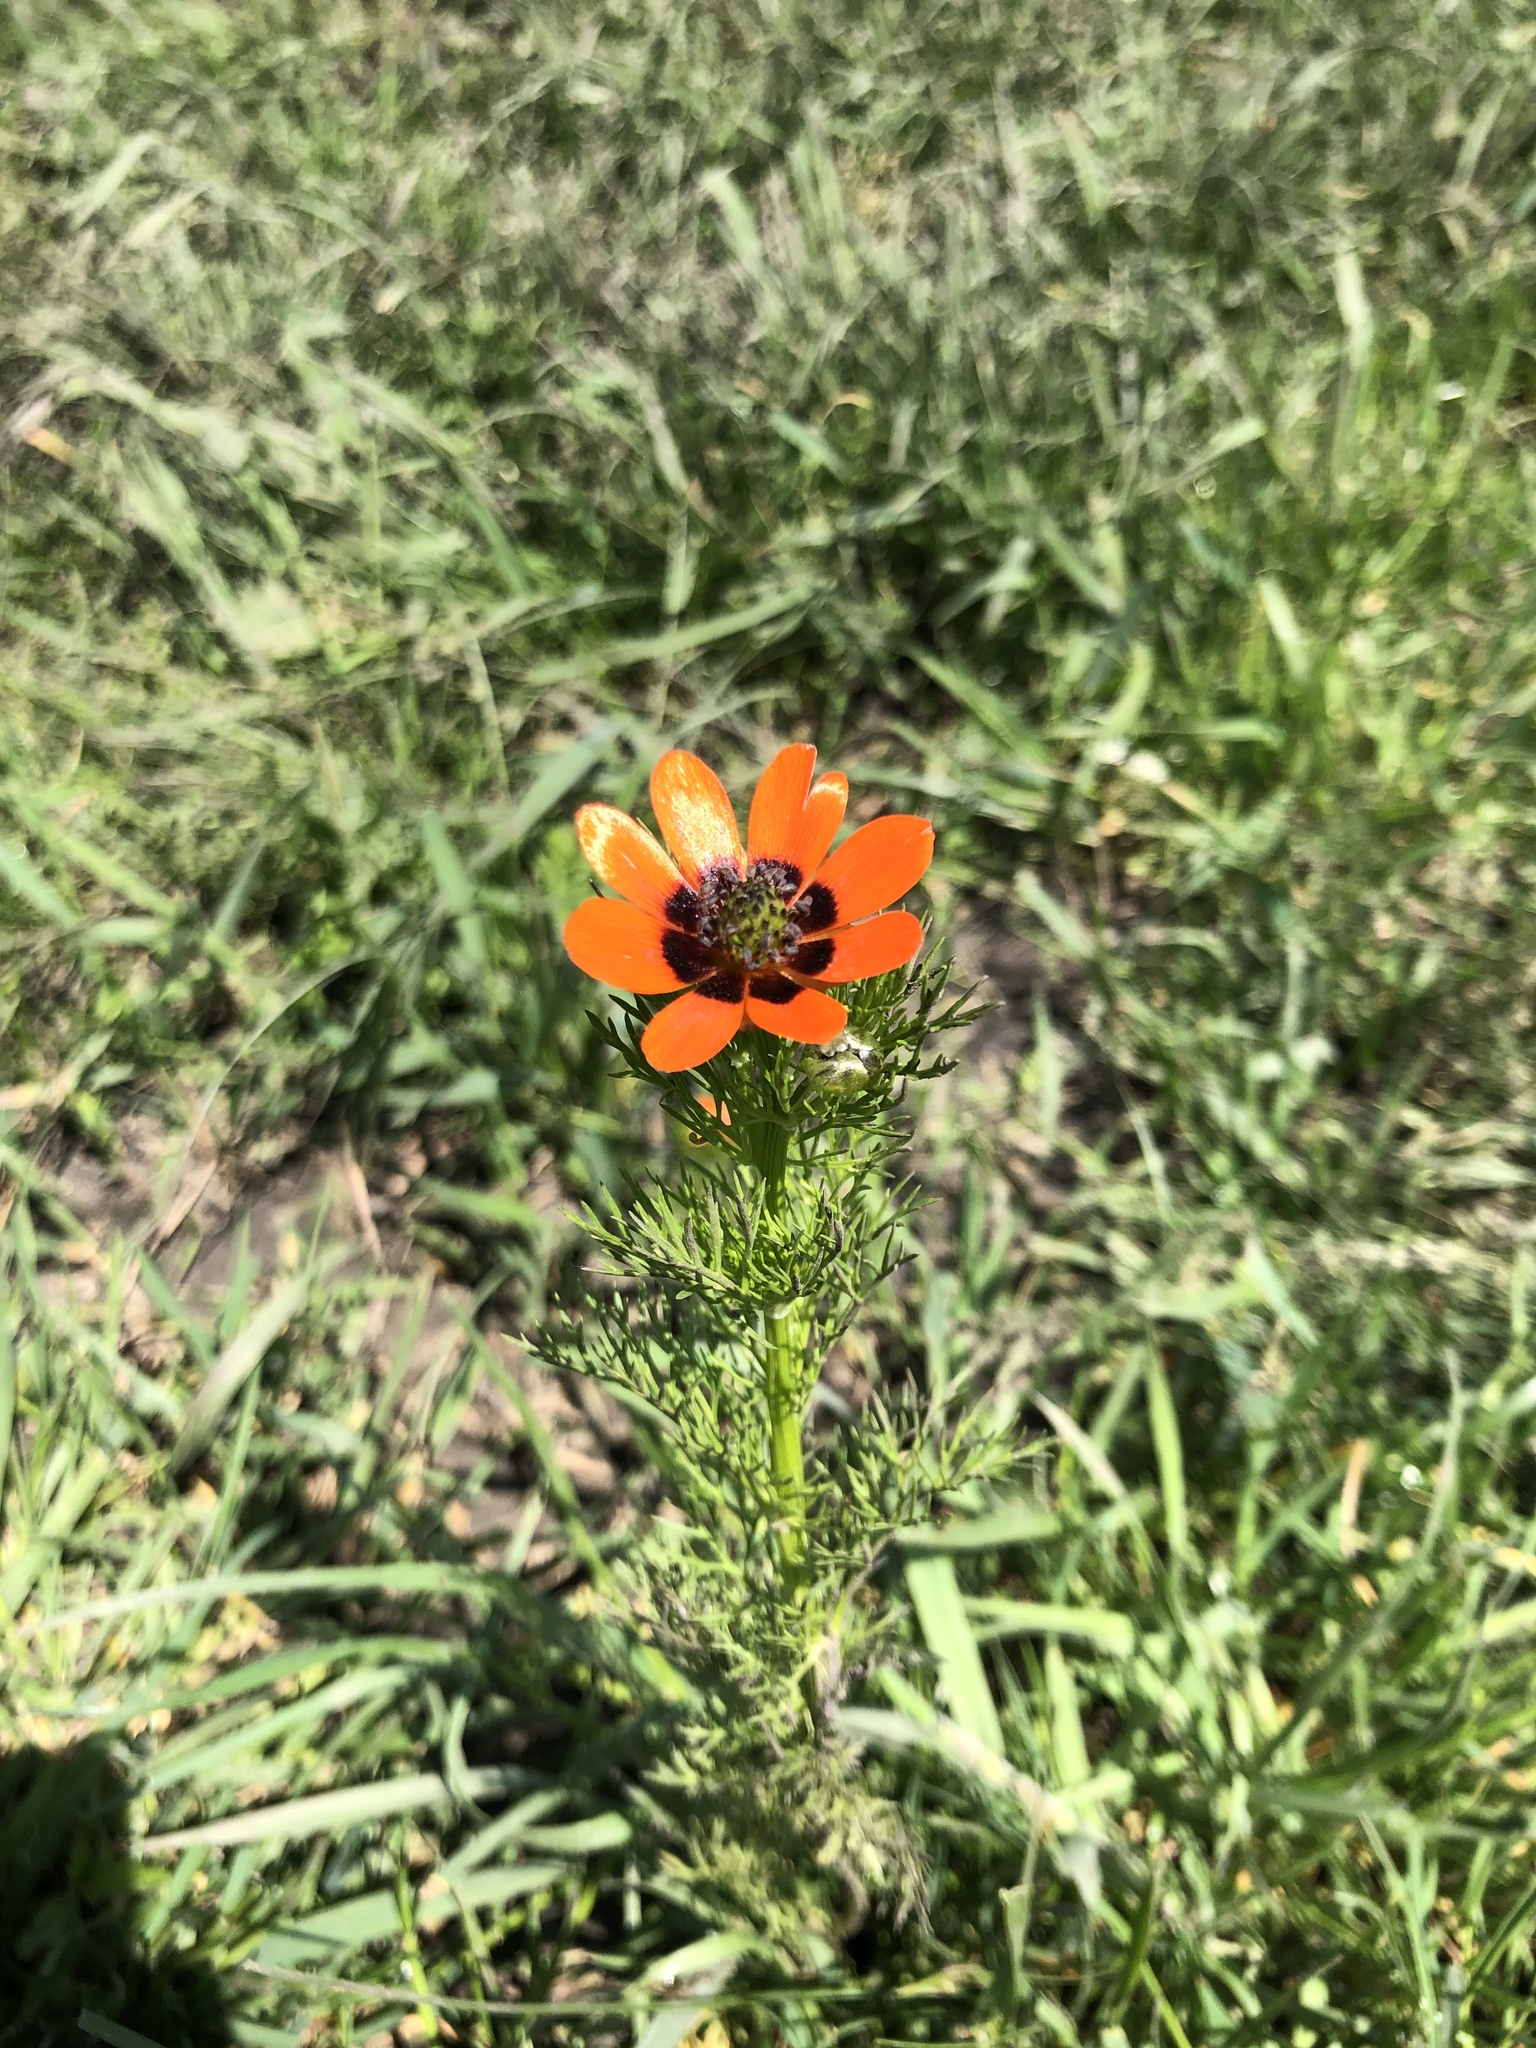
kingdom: Plantae
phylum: Tracheophyta
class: Magnoliopsida
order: Ranunculales
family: Ranunculaceae
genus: Adonis
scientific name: Adonis aestivalis
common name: Summer pheasant's-eye
